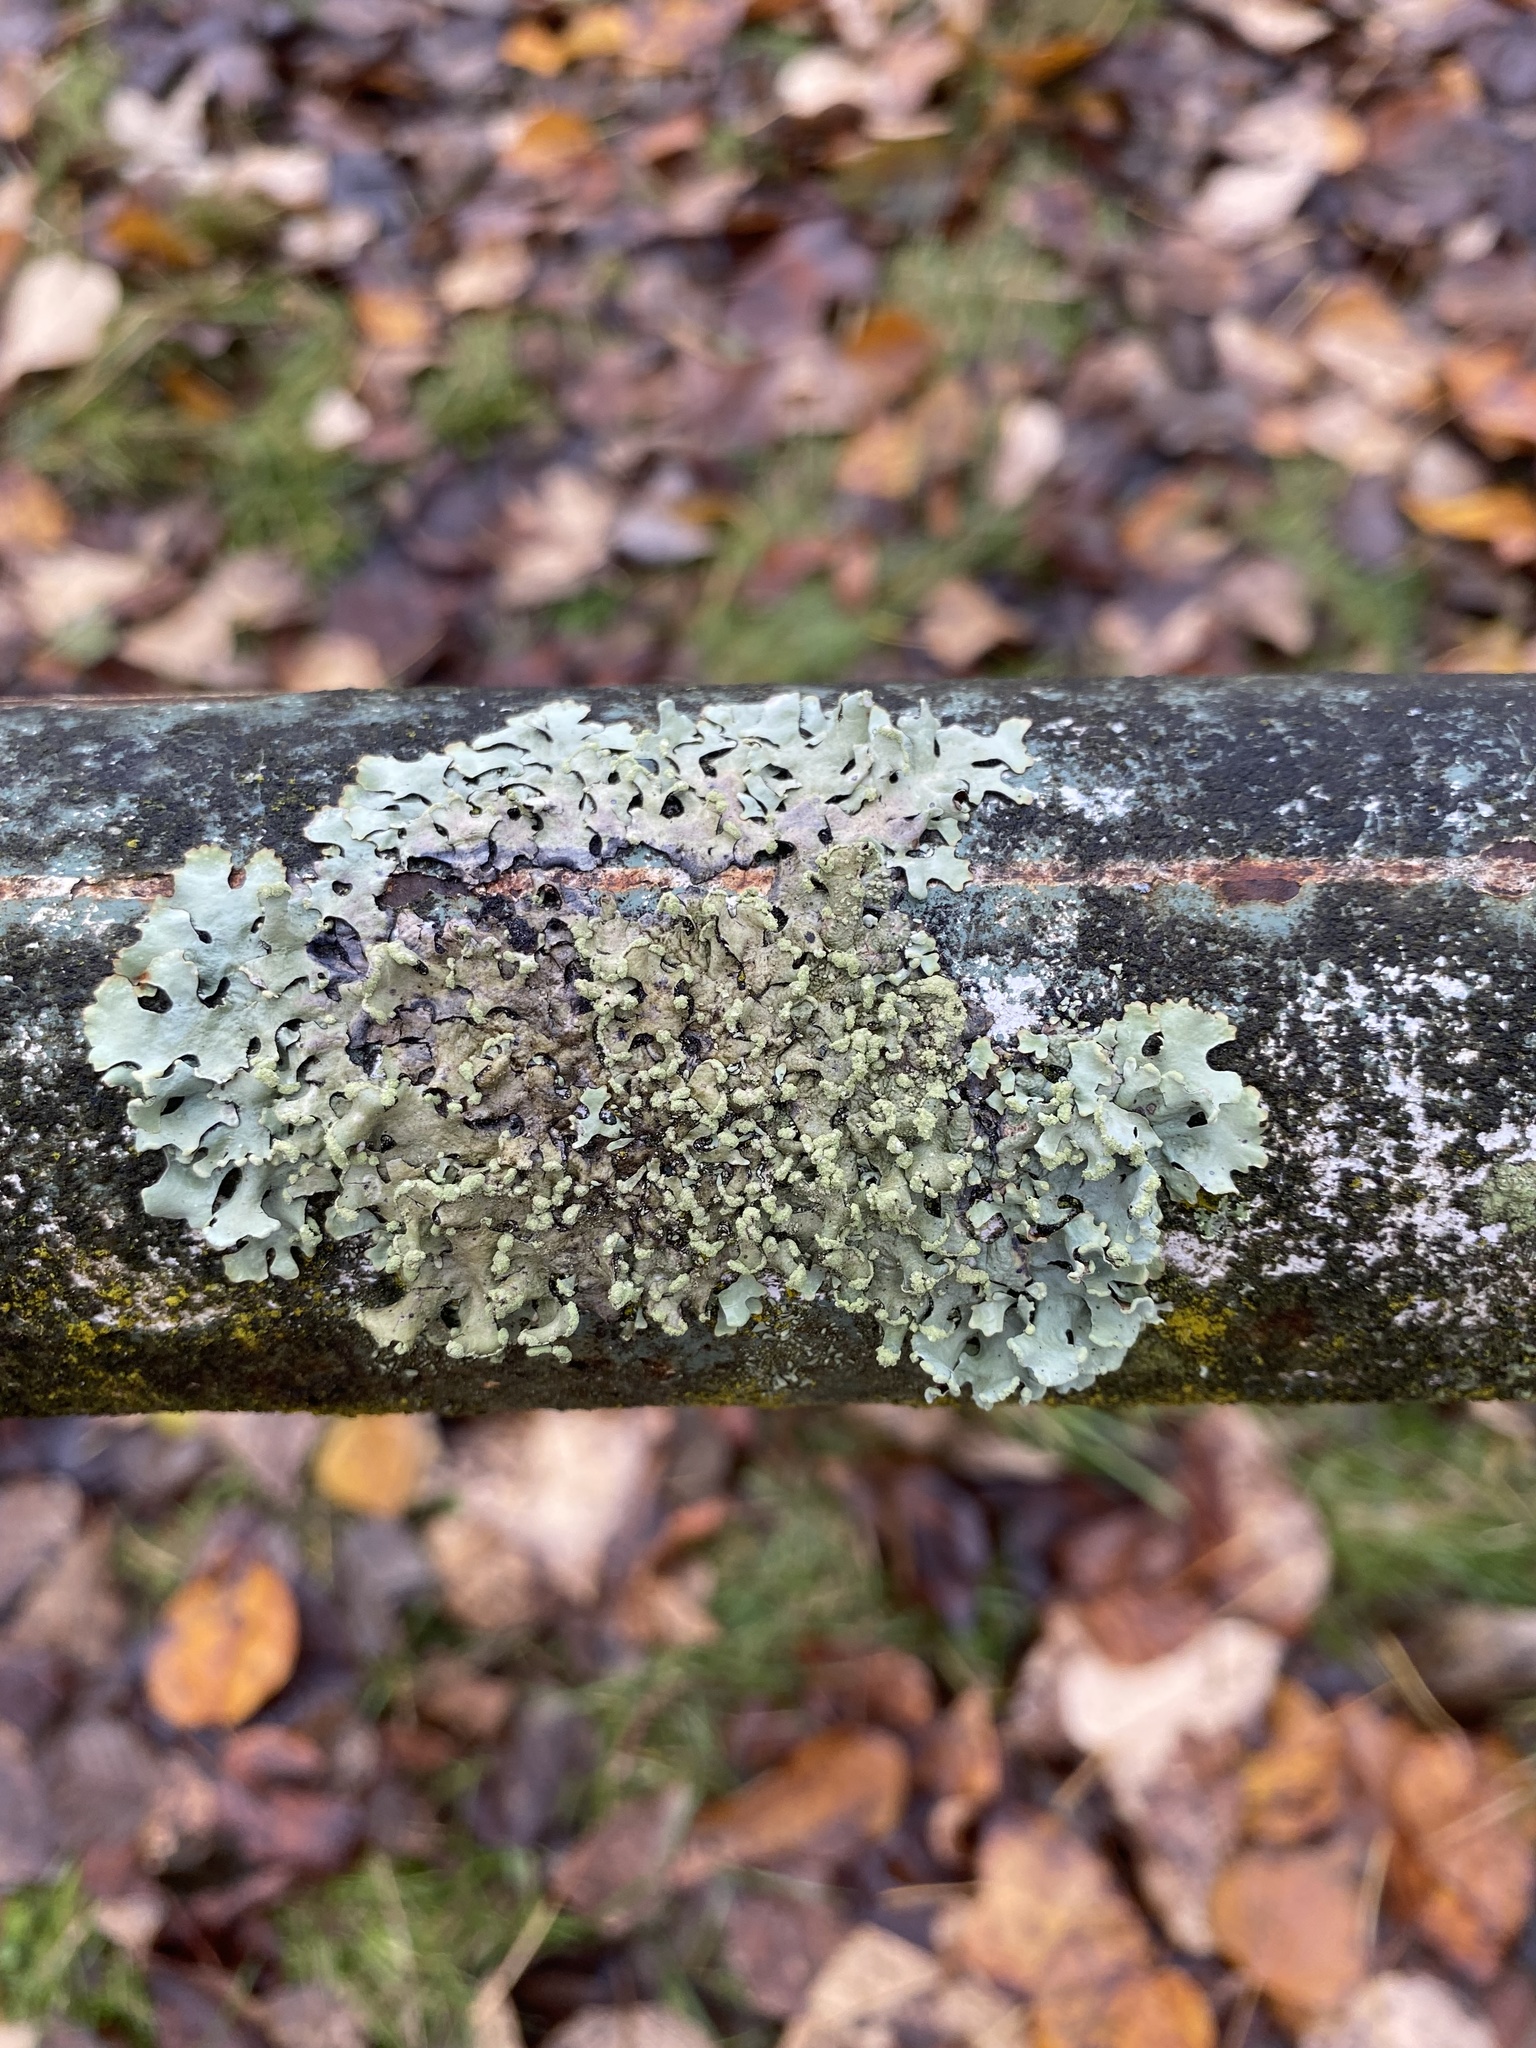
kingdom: Fungi
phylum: Ascomycota
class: Lecanoromycetes
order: Lecanorales
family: Parmeliaceae
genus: Hypotrachyna
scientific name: Hypotrachyna sinuosa
